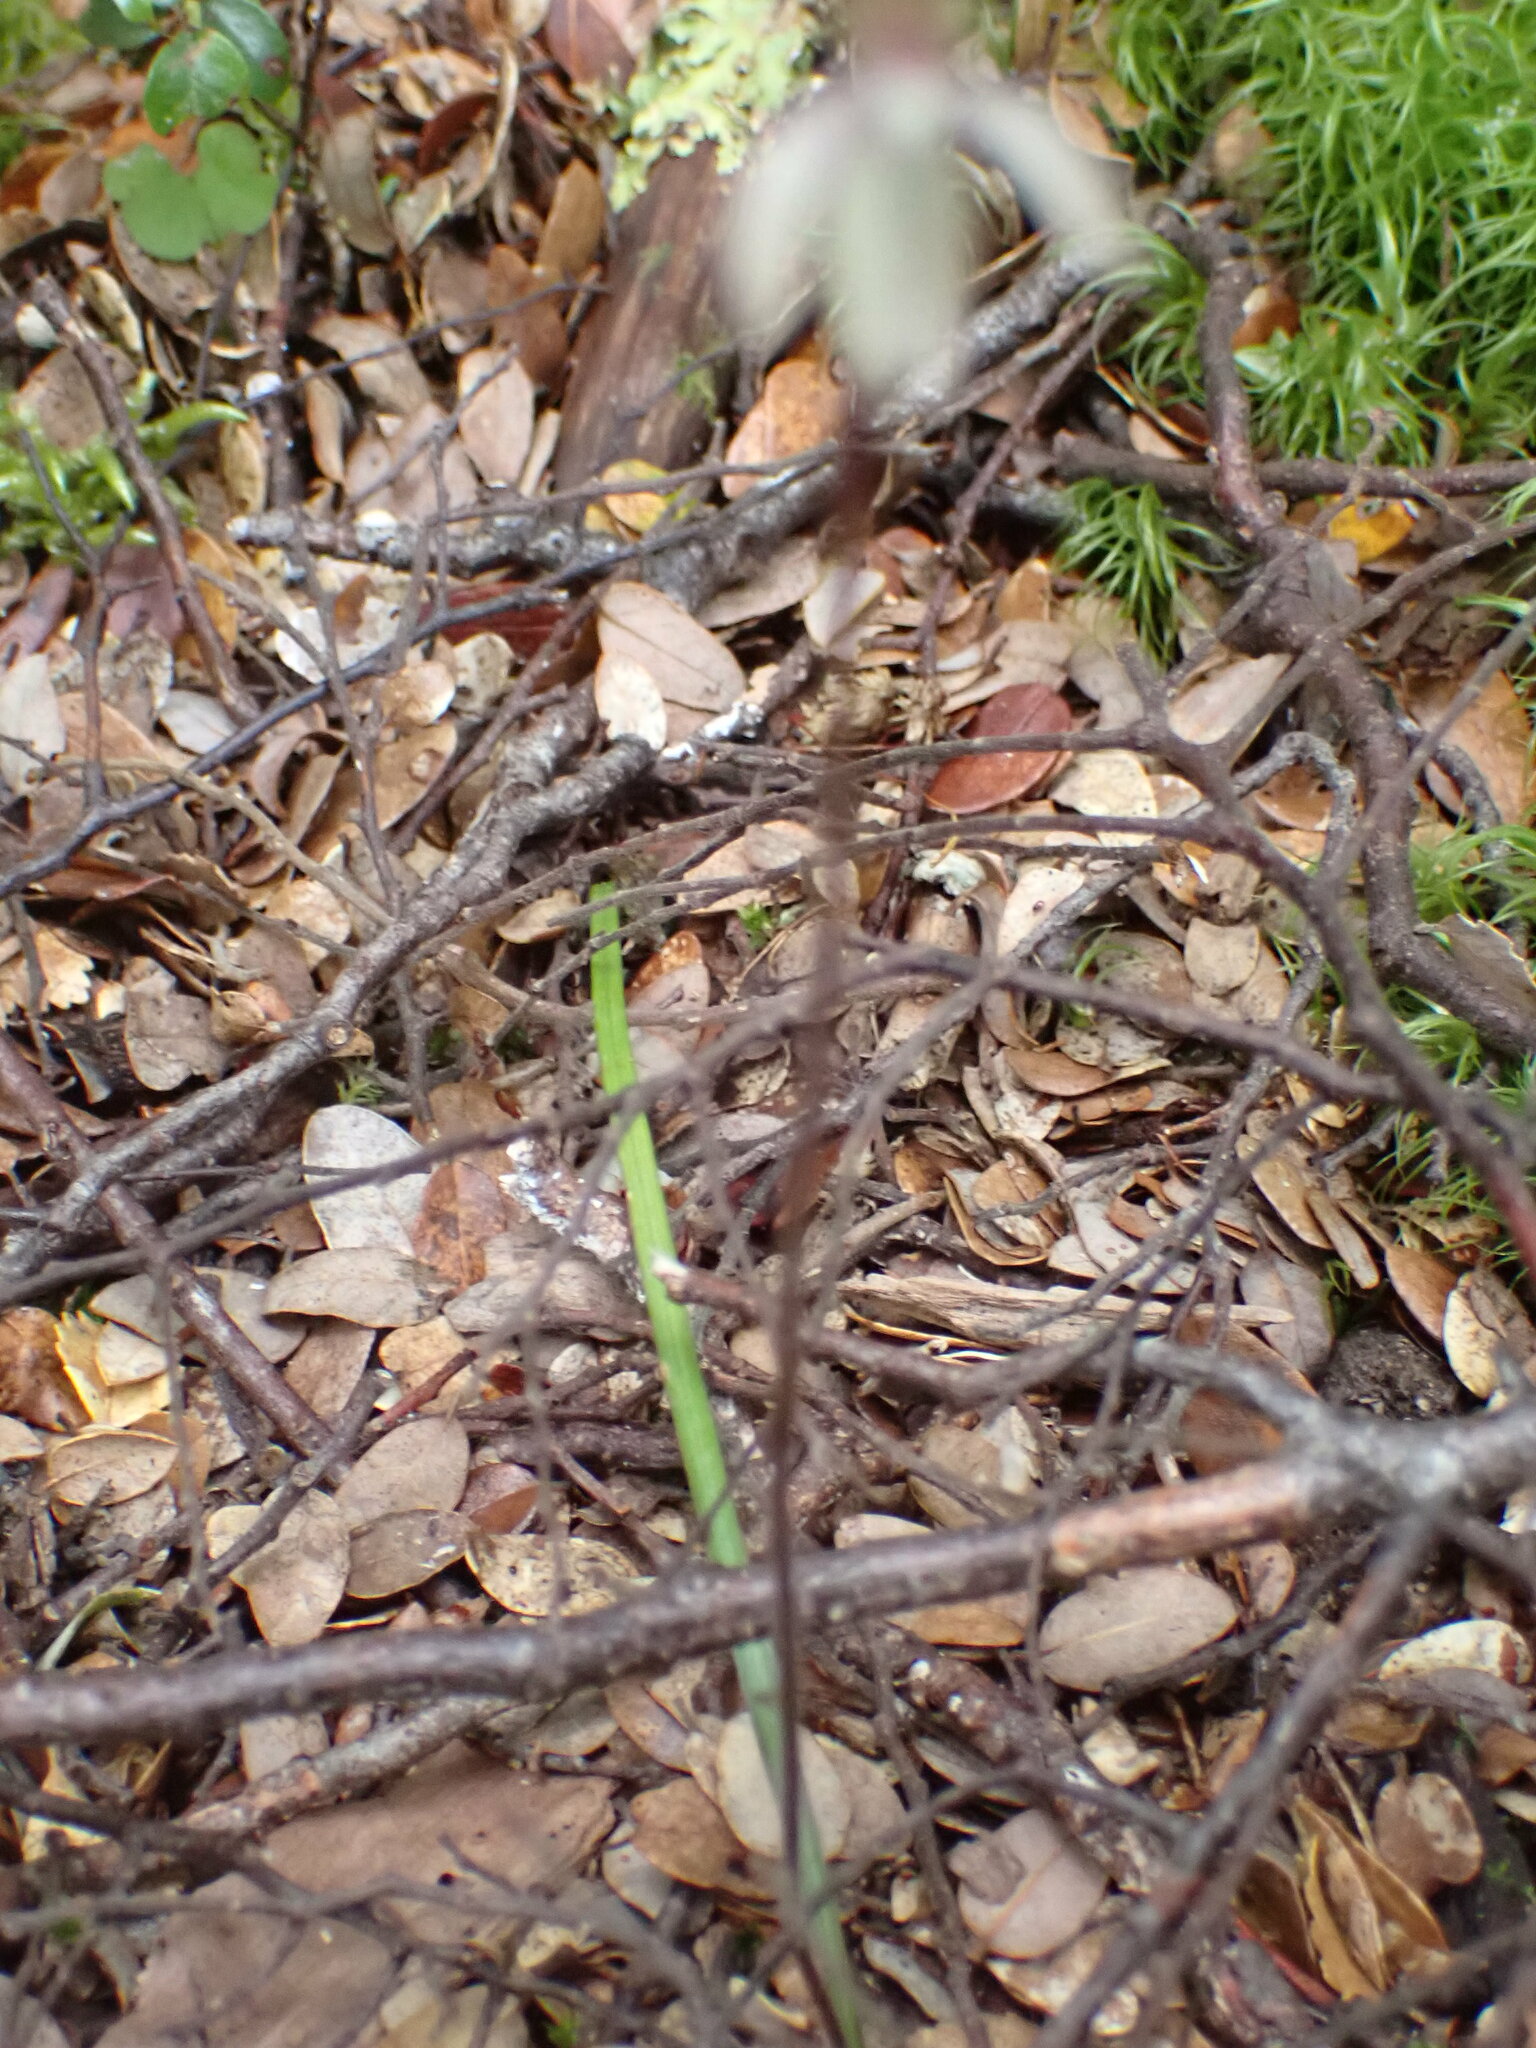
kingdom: Plantae
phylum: Tracheophyta
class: Liliopsida
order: Asparagales
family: Orchidaceae
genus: Caladenia
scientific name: Caladenia chlorostyla
